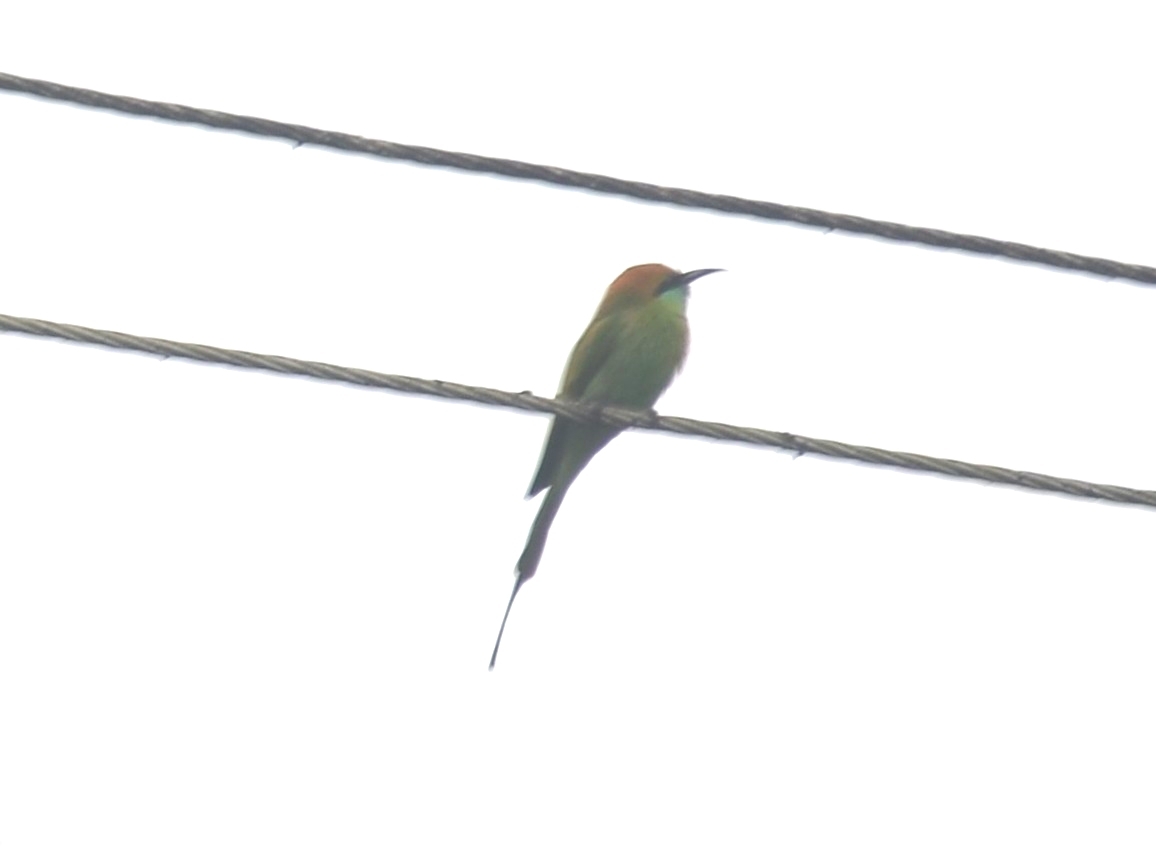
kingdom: Animalia
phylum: Chordata
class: Aves
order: Coraciiformes
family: Meropidae
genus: Merops
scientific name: Merops orientalis
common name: Green bee-eater
